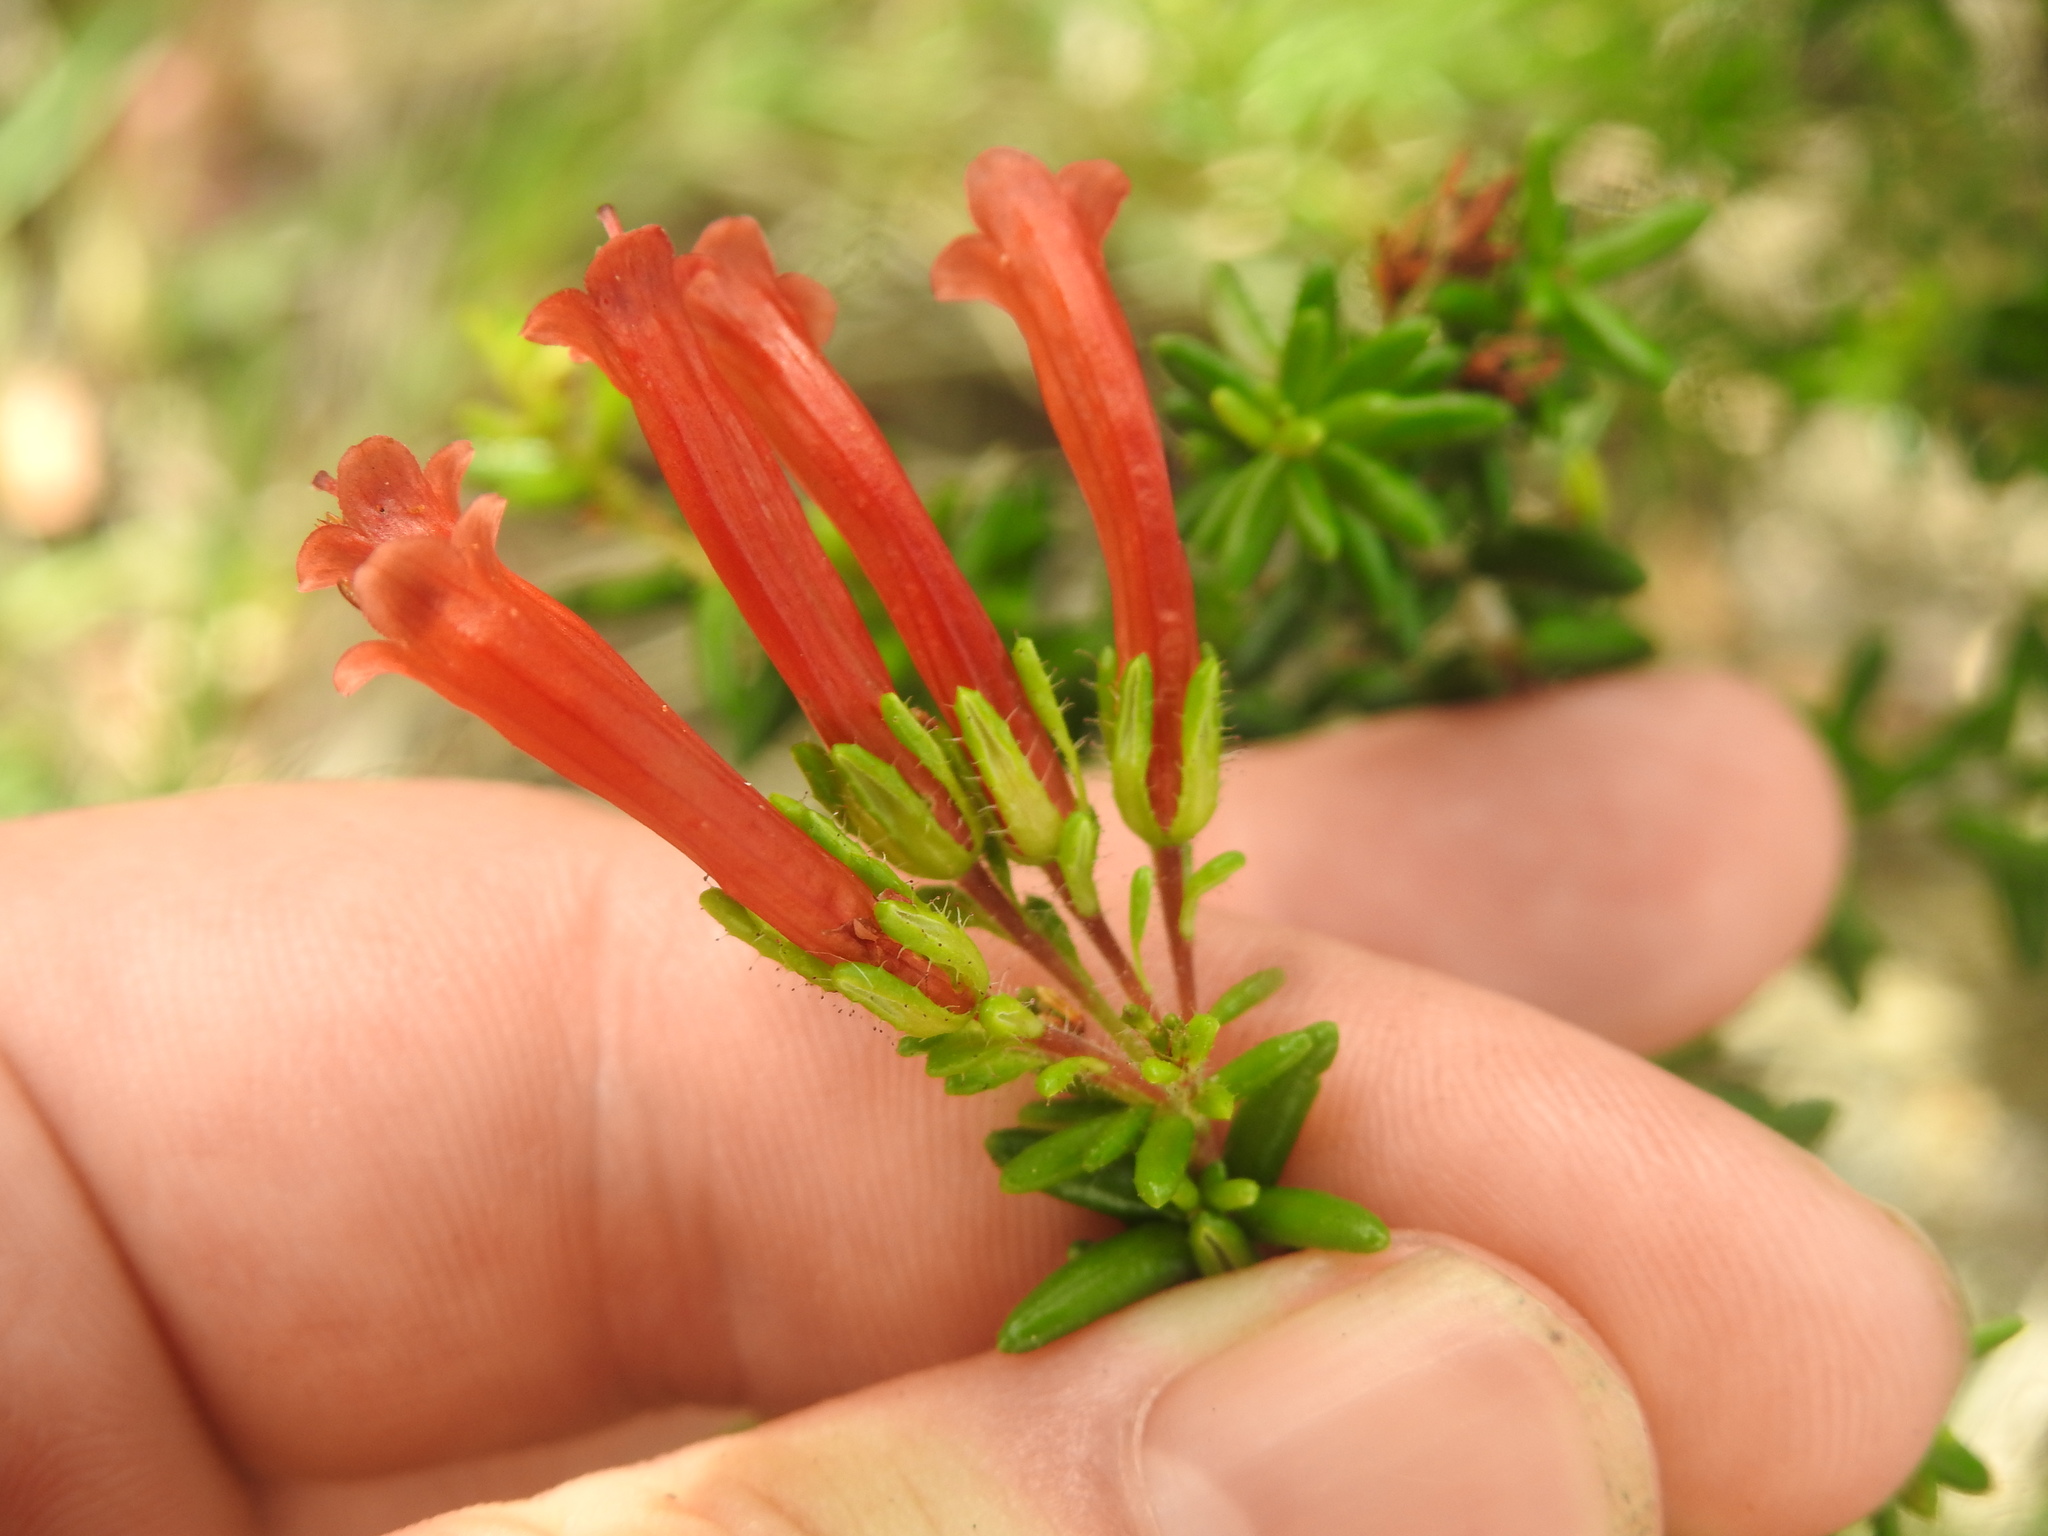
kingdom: Plantae
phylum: Tracheophyta
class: Magnoliopsida
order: Ericales
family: Ericaceae
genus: Erica
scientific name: Erica glandulosa
